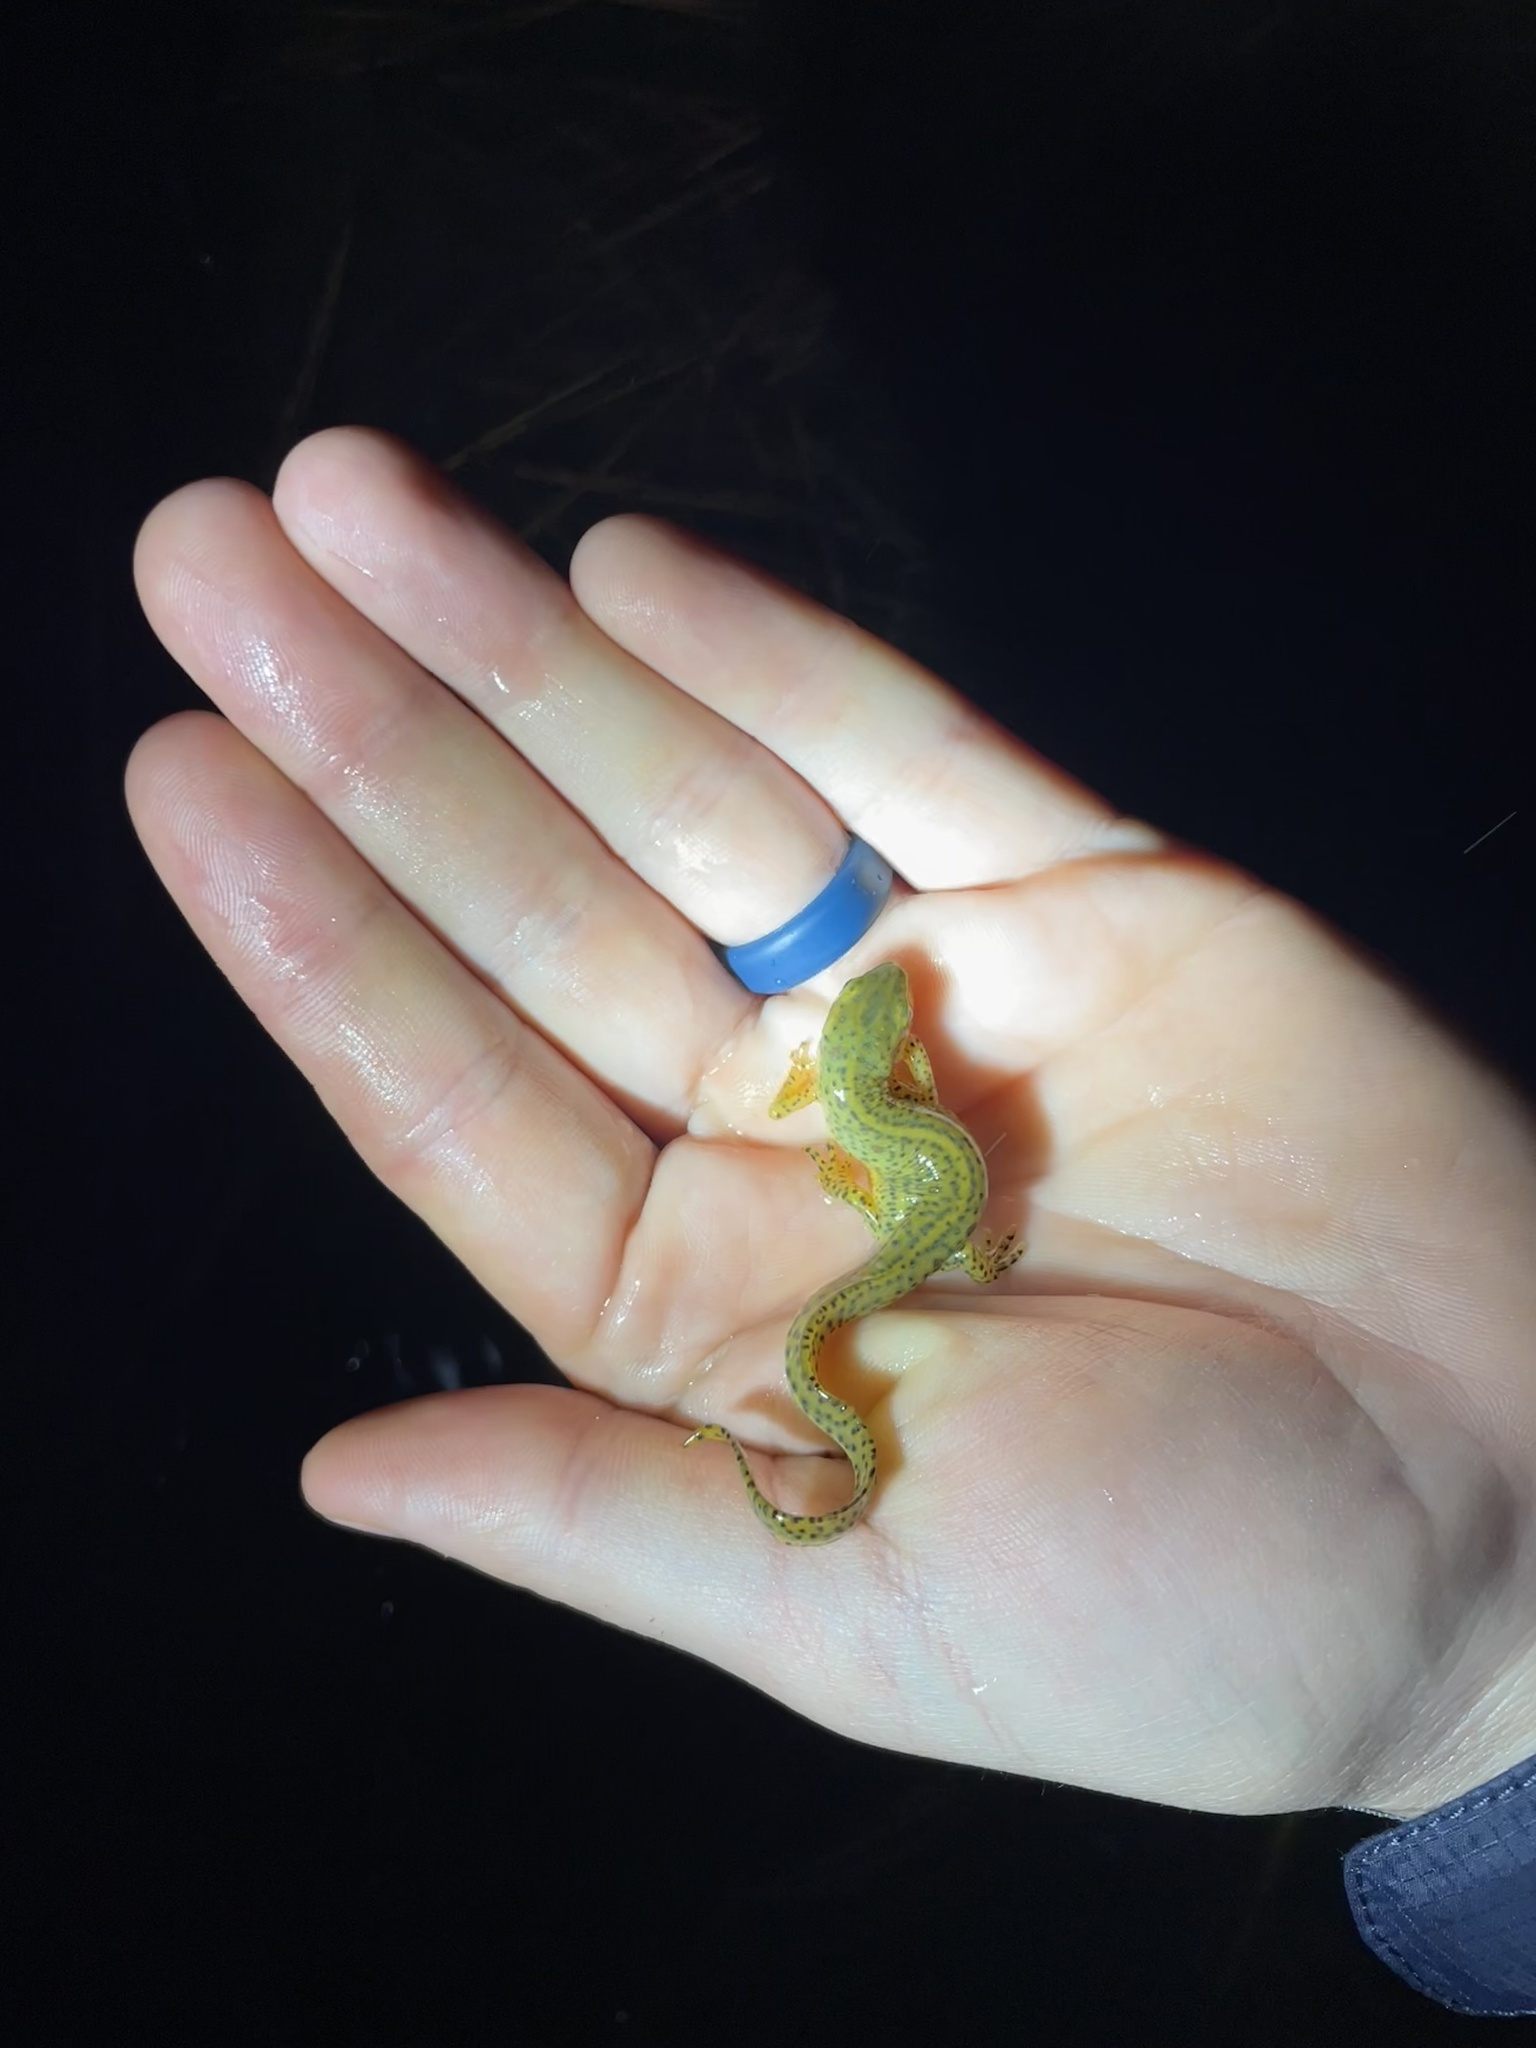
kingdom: Animalia
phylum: Chordata
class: Amphibia
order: Caudata
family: Salamandridae
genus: Notophthalmus
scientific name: Notophthalmus viridescens
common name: Eastern newt
